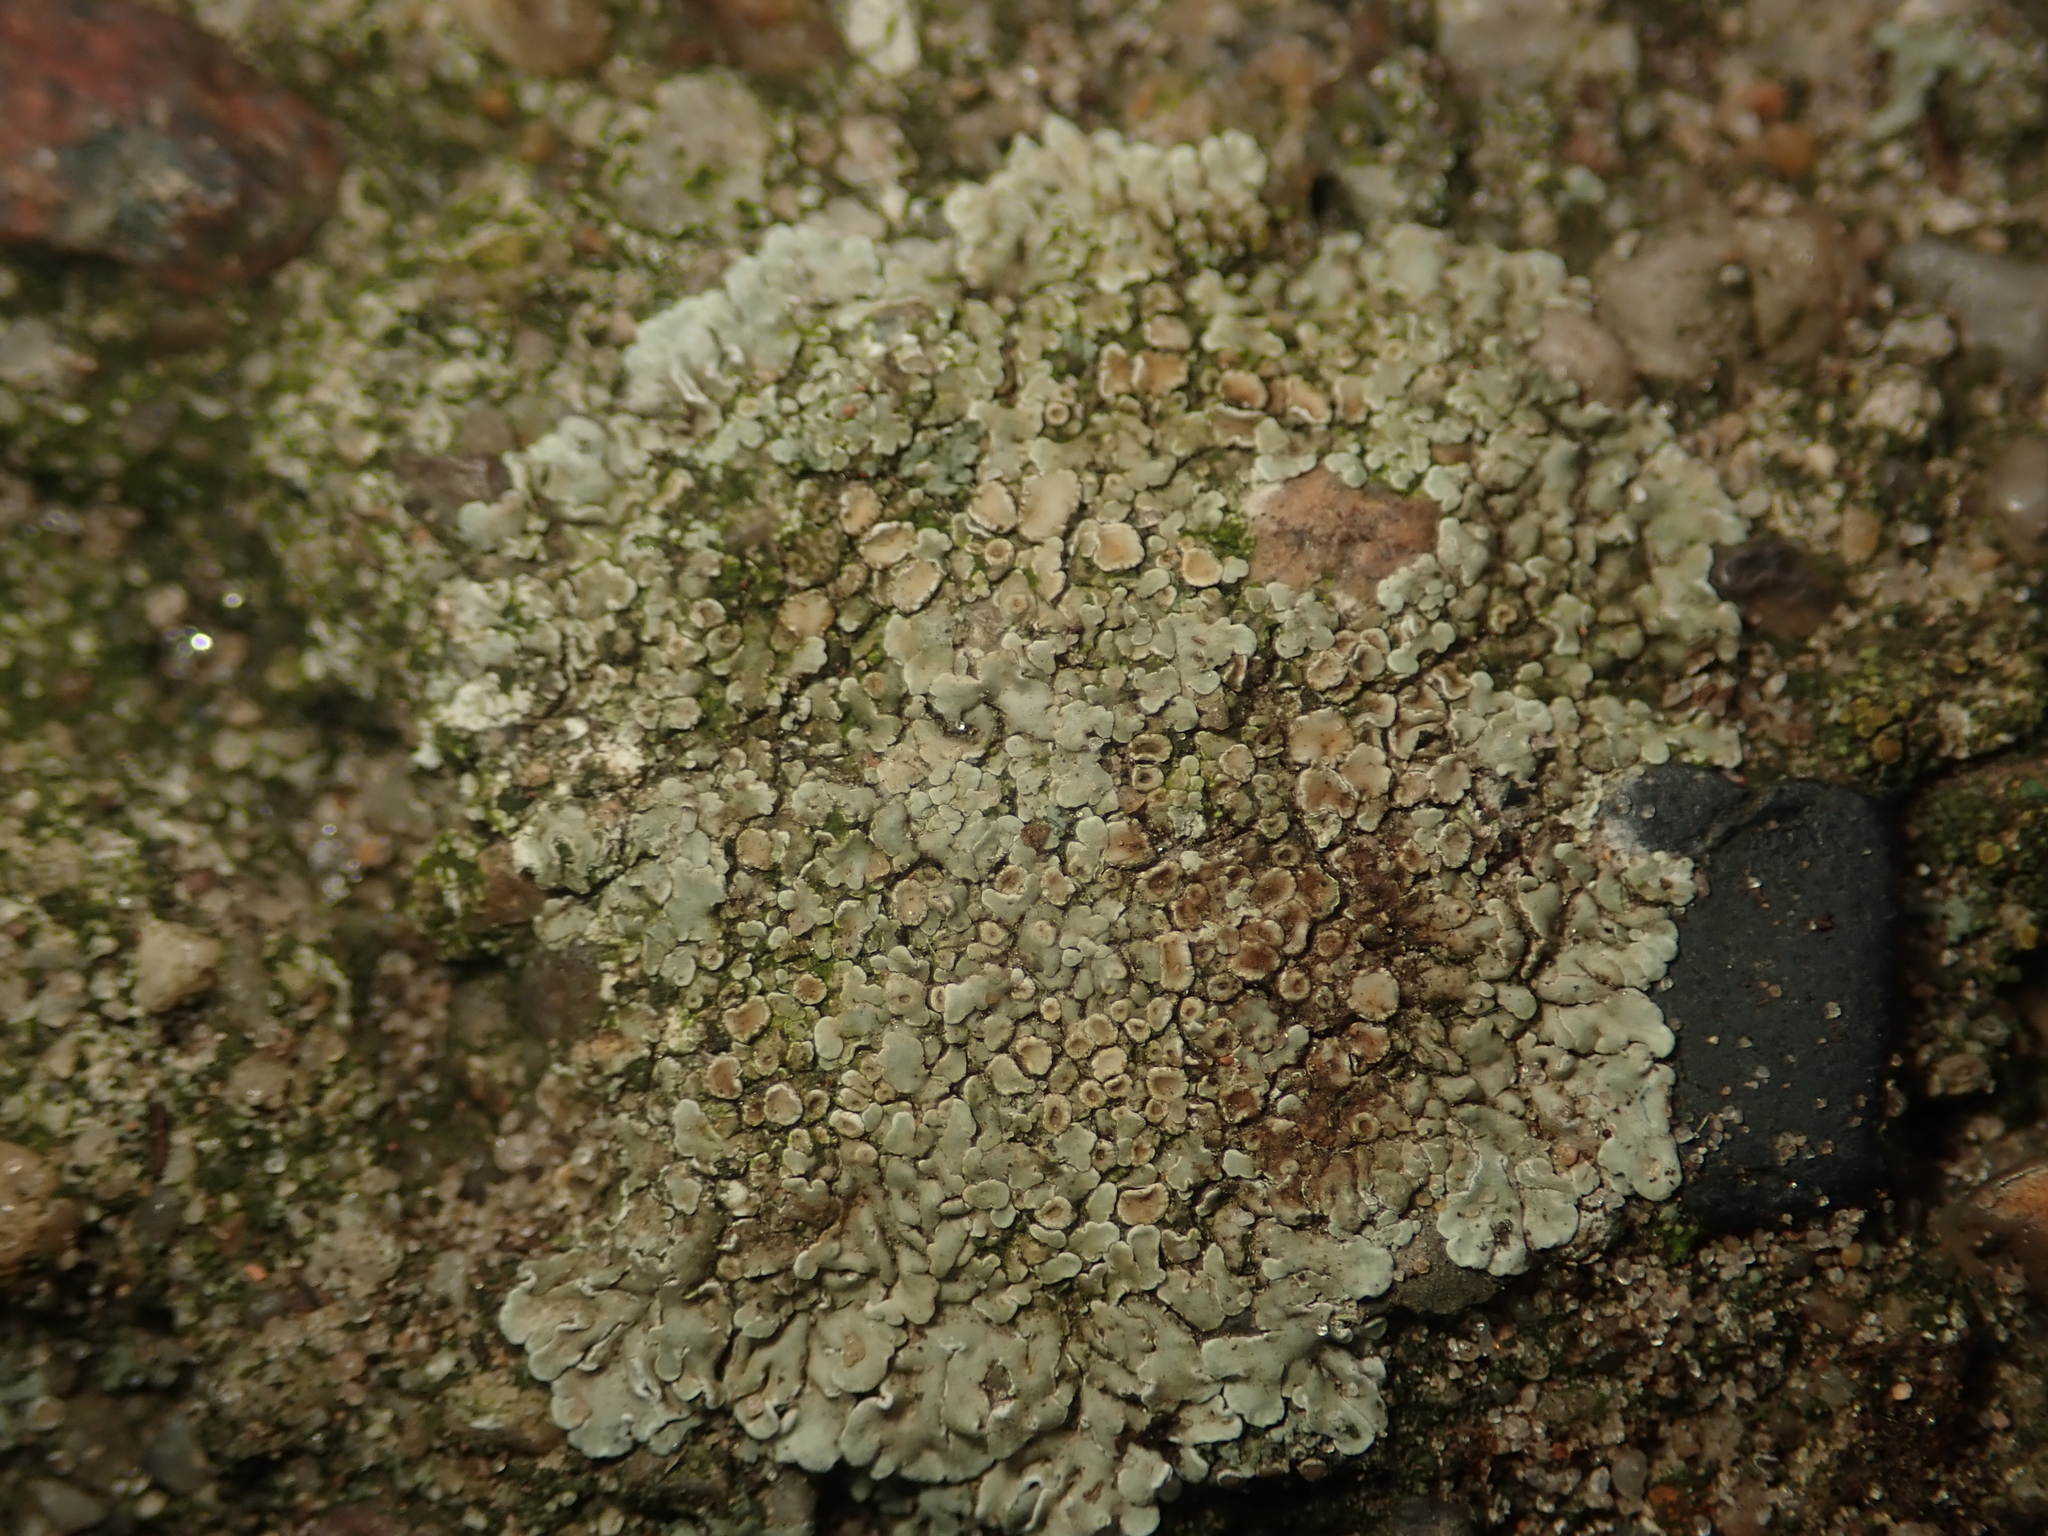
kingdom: Fungi
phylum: Ascomycota
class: Lecanoromycetes
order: Lecanorales
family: Lecanoraceae
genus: Protoparmeliopsis
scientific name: Protoparmeliopsis muralis
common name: Stonewall rim lichen
